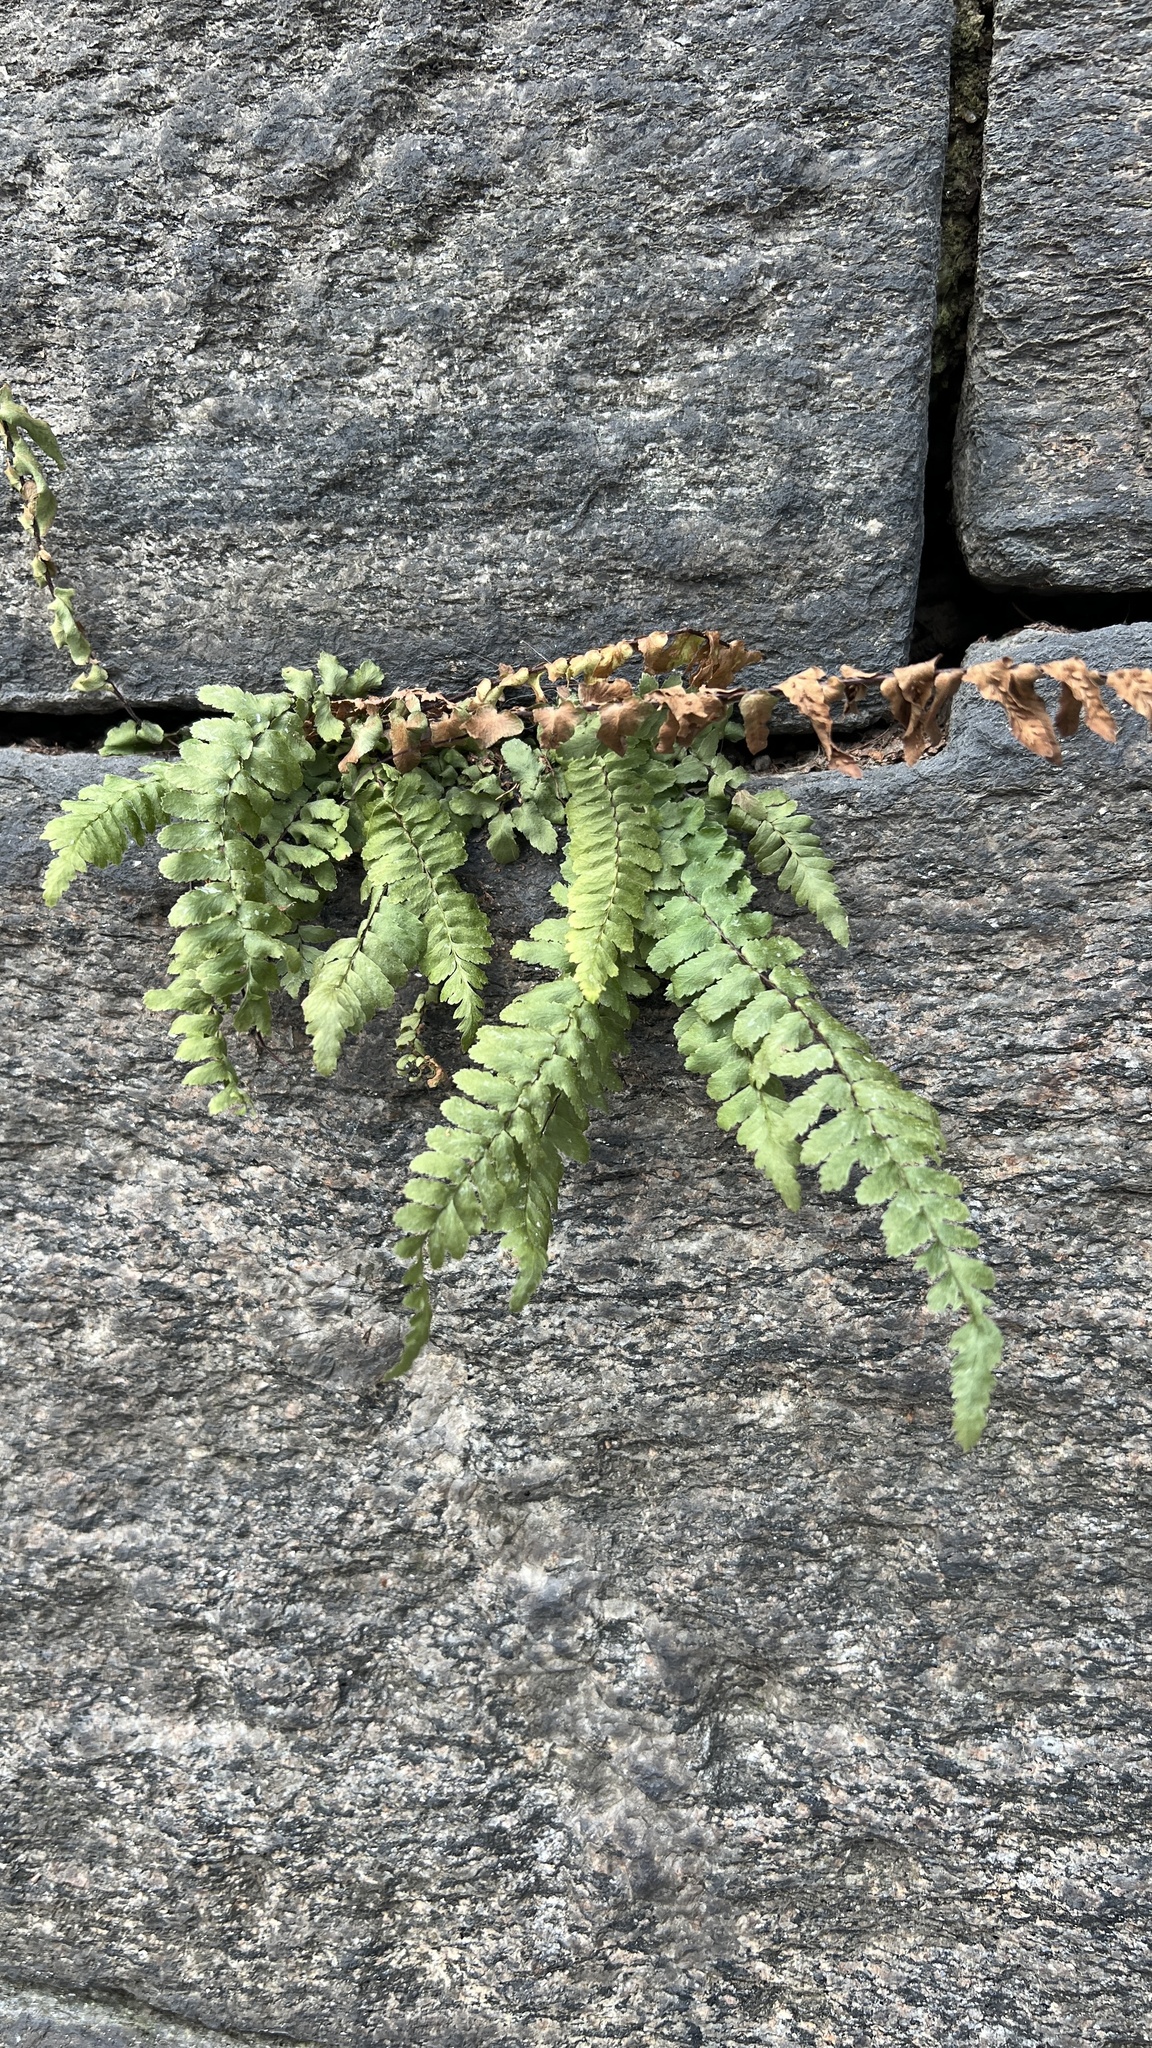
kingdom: Plantae
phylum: Tracheophyta
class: Polypodiopsida
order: Polypodiales
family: Aspleniaceae
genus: Asplenium
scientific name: Asplenium platyneuron
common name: Ebony spleenwort
